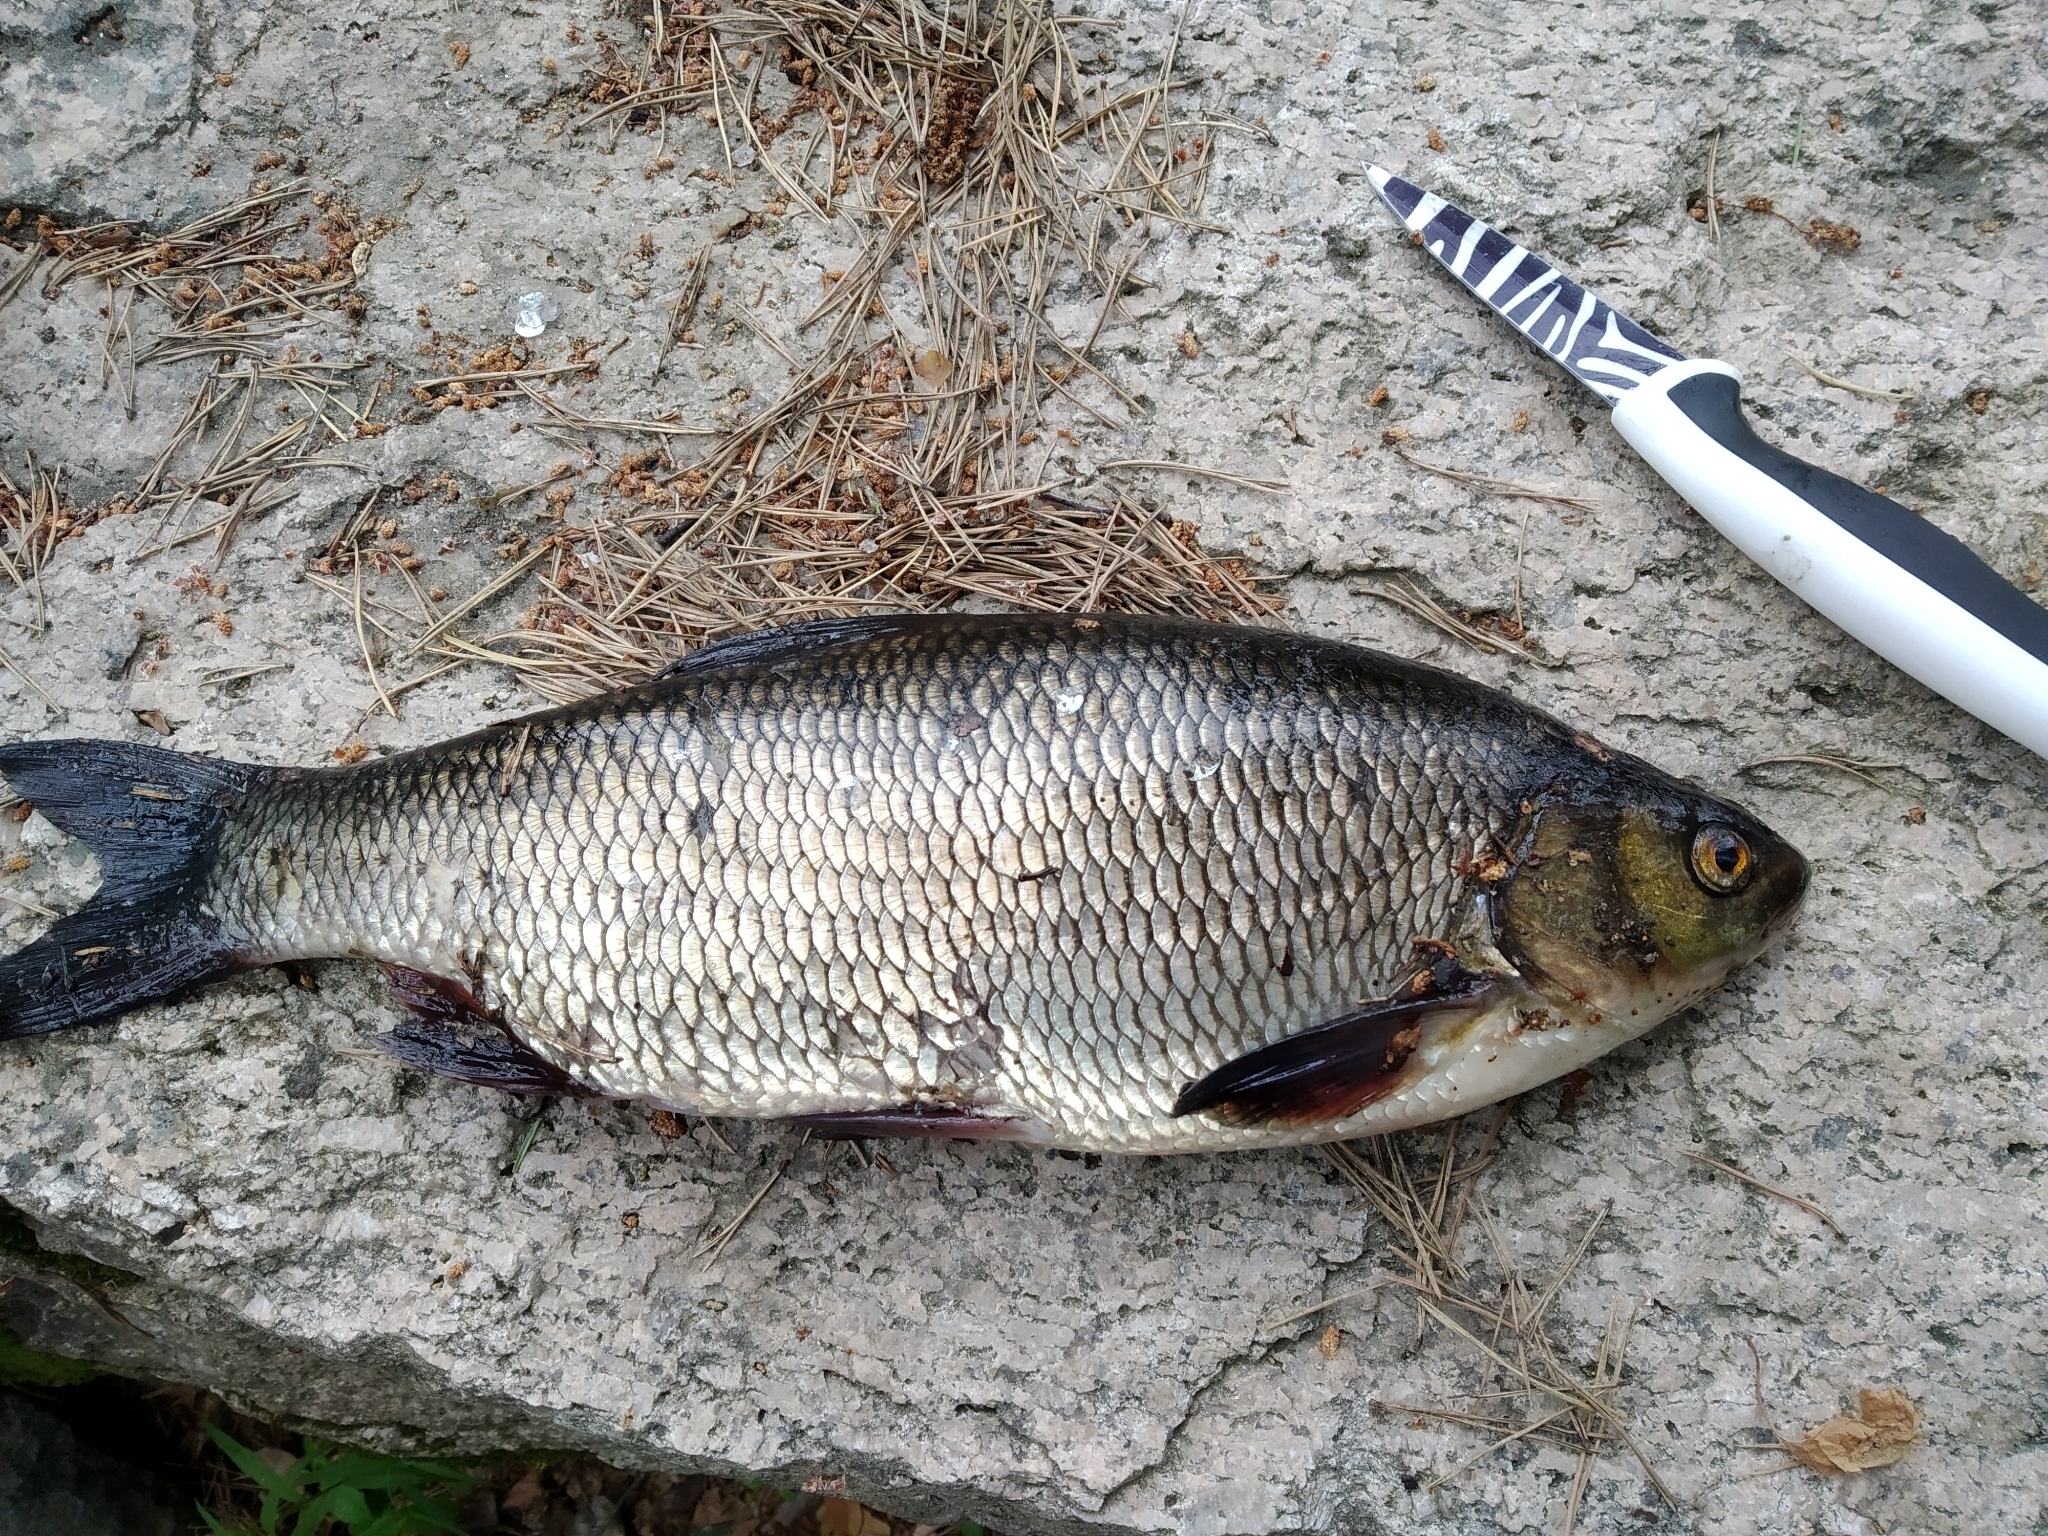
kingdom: Animalia
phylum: Chordata
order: Cypriniformes
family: Cyprinidae
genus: Leuciscus
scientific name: Leuciscus idus
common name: Ide
